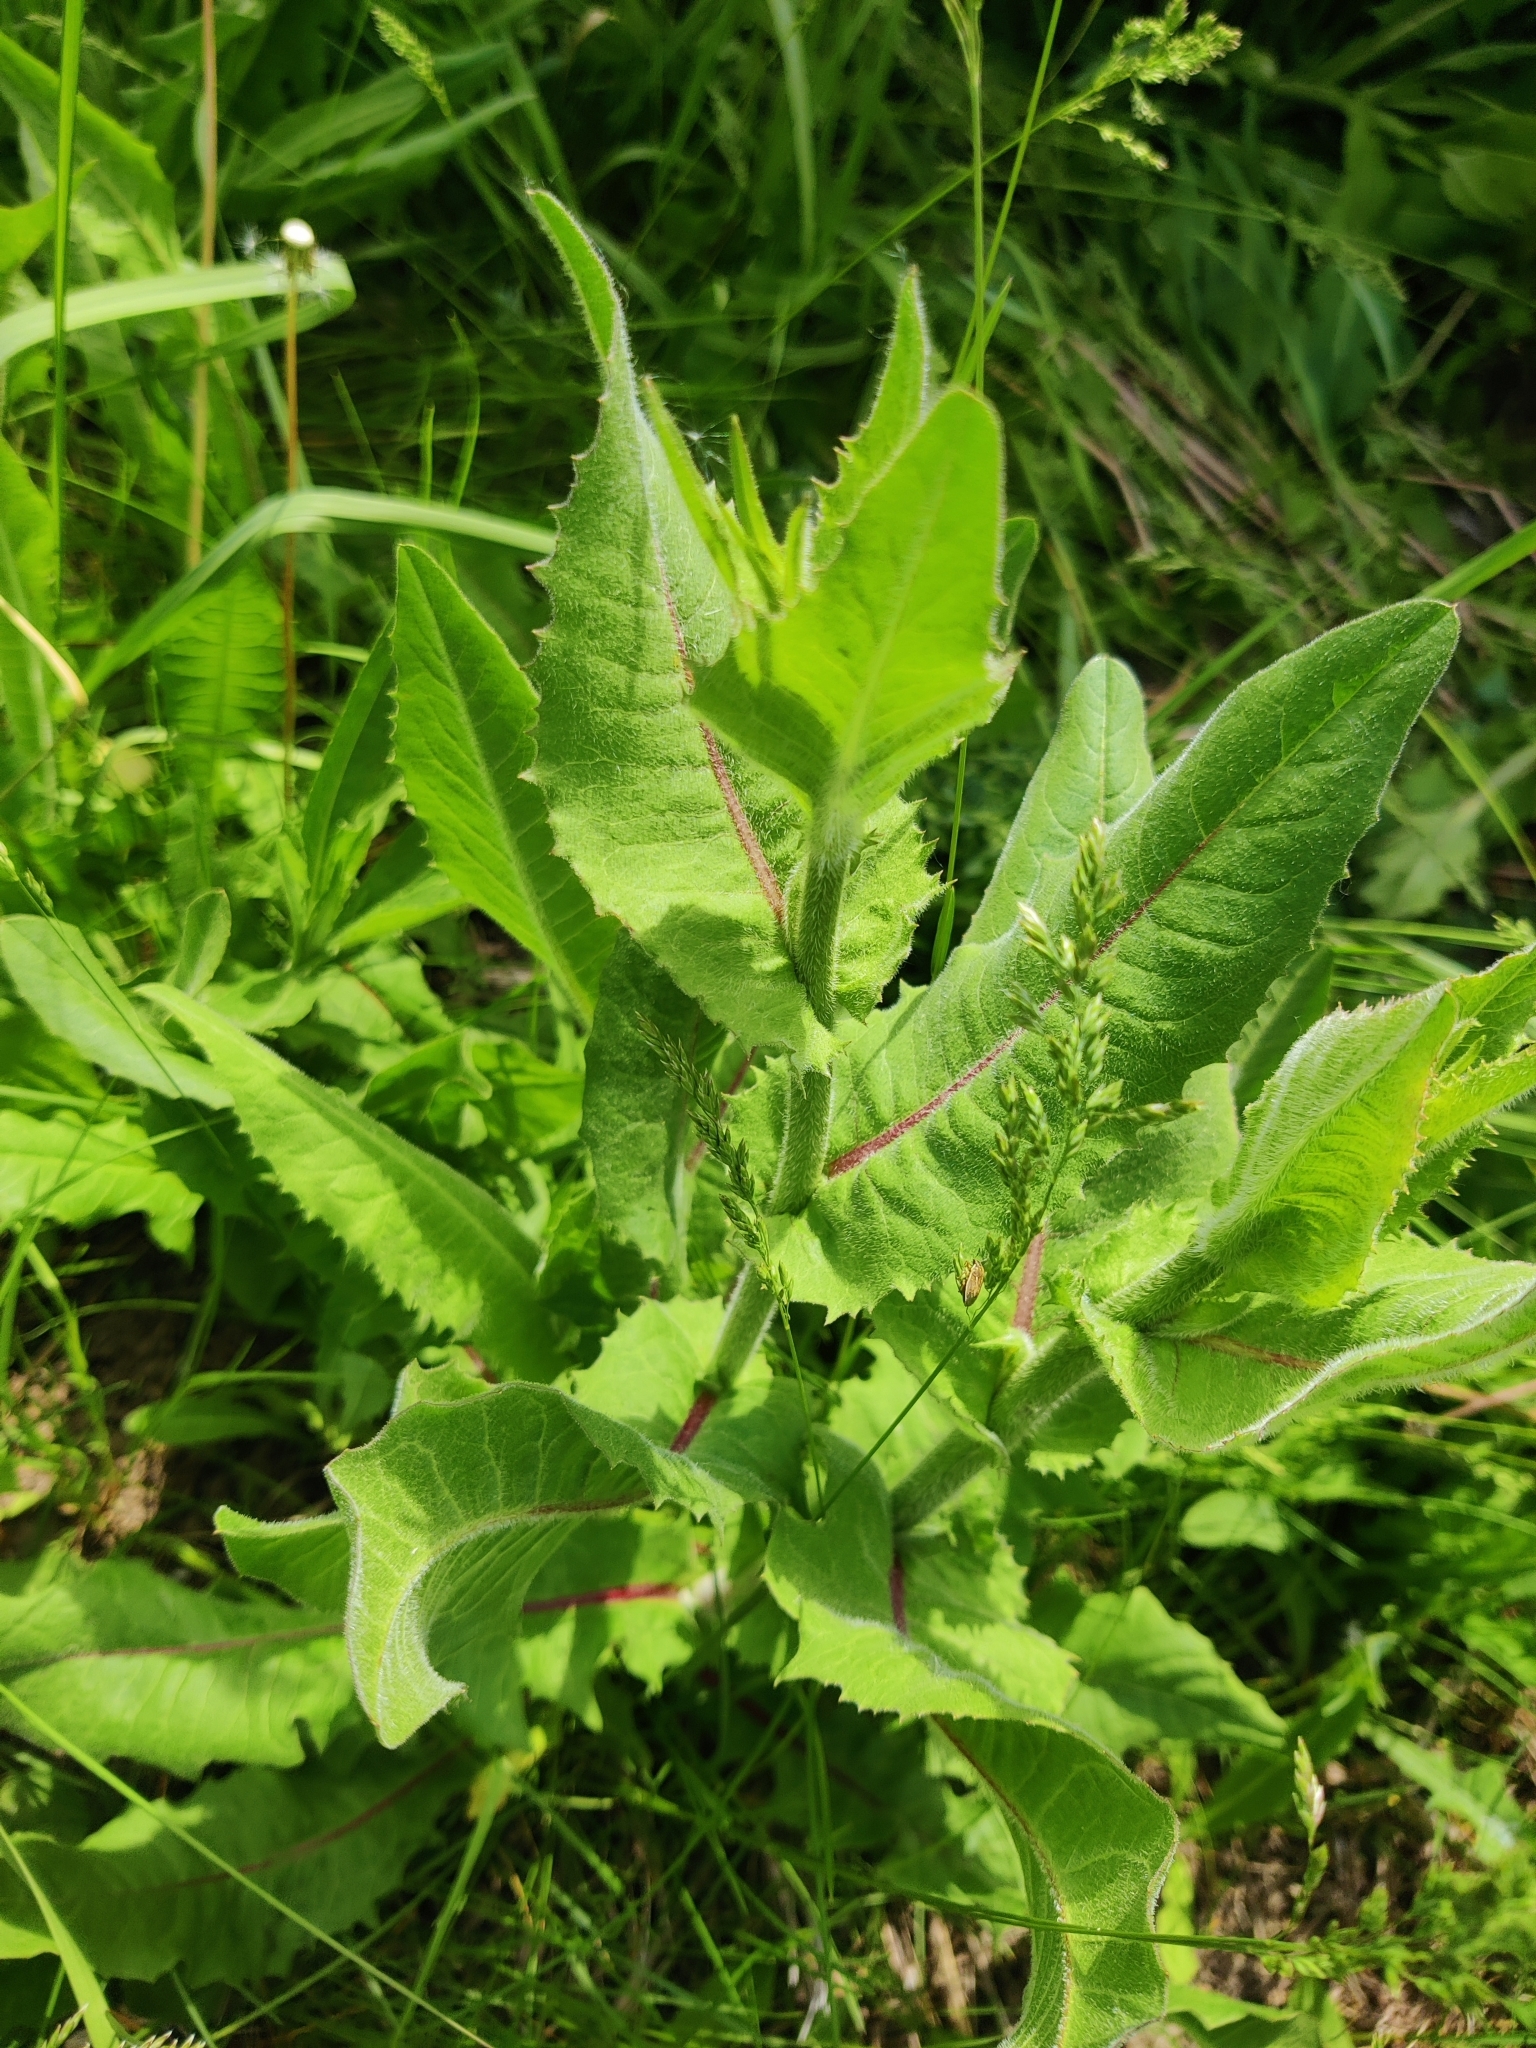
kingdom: Plantae
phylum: Tracheophyta
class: Magnoliopsida
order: Asterales
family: Asteraceae
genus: Cichorium
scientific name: Cichorium intybus
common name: Chicory
